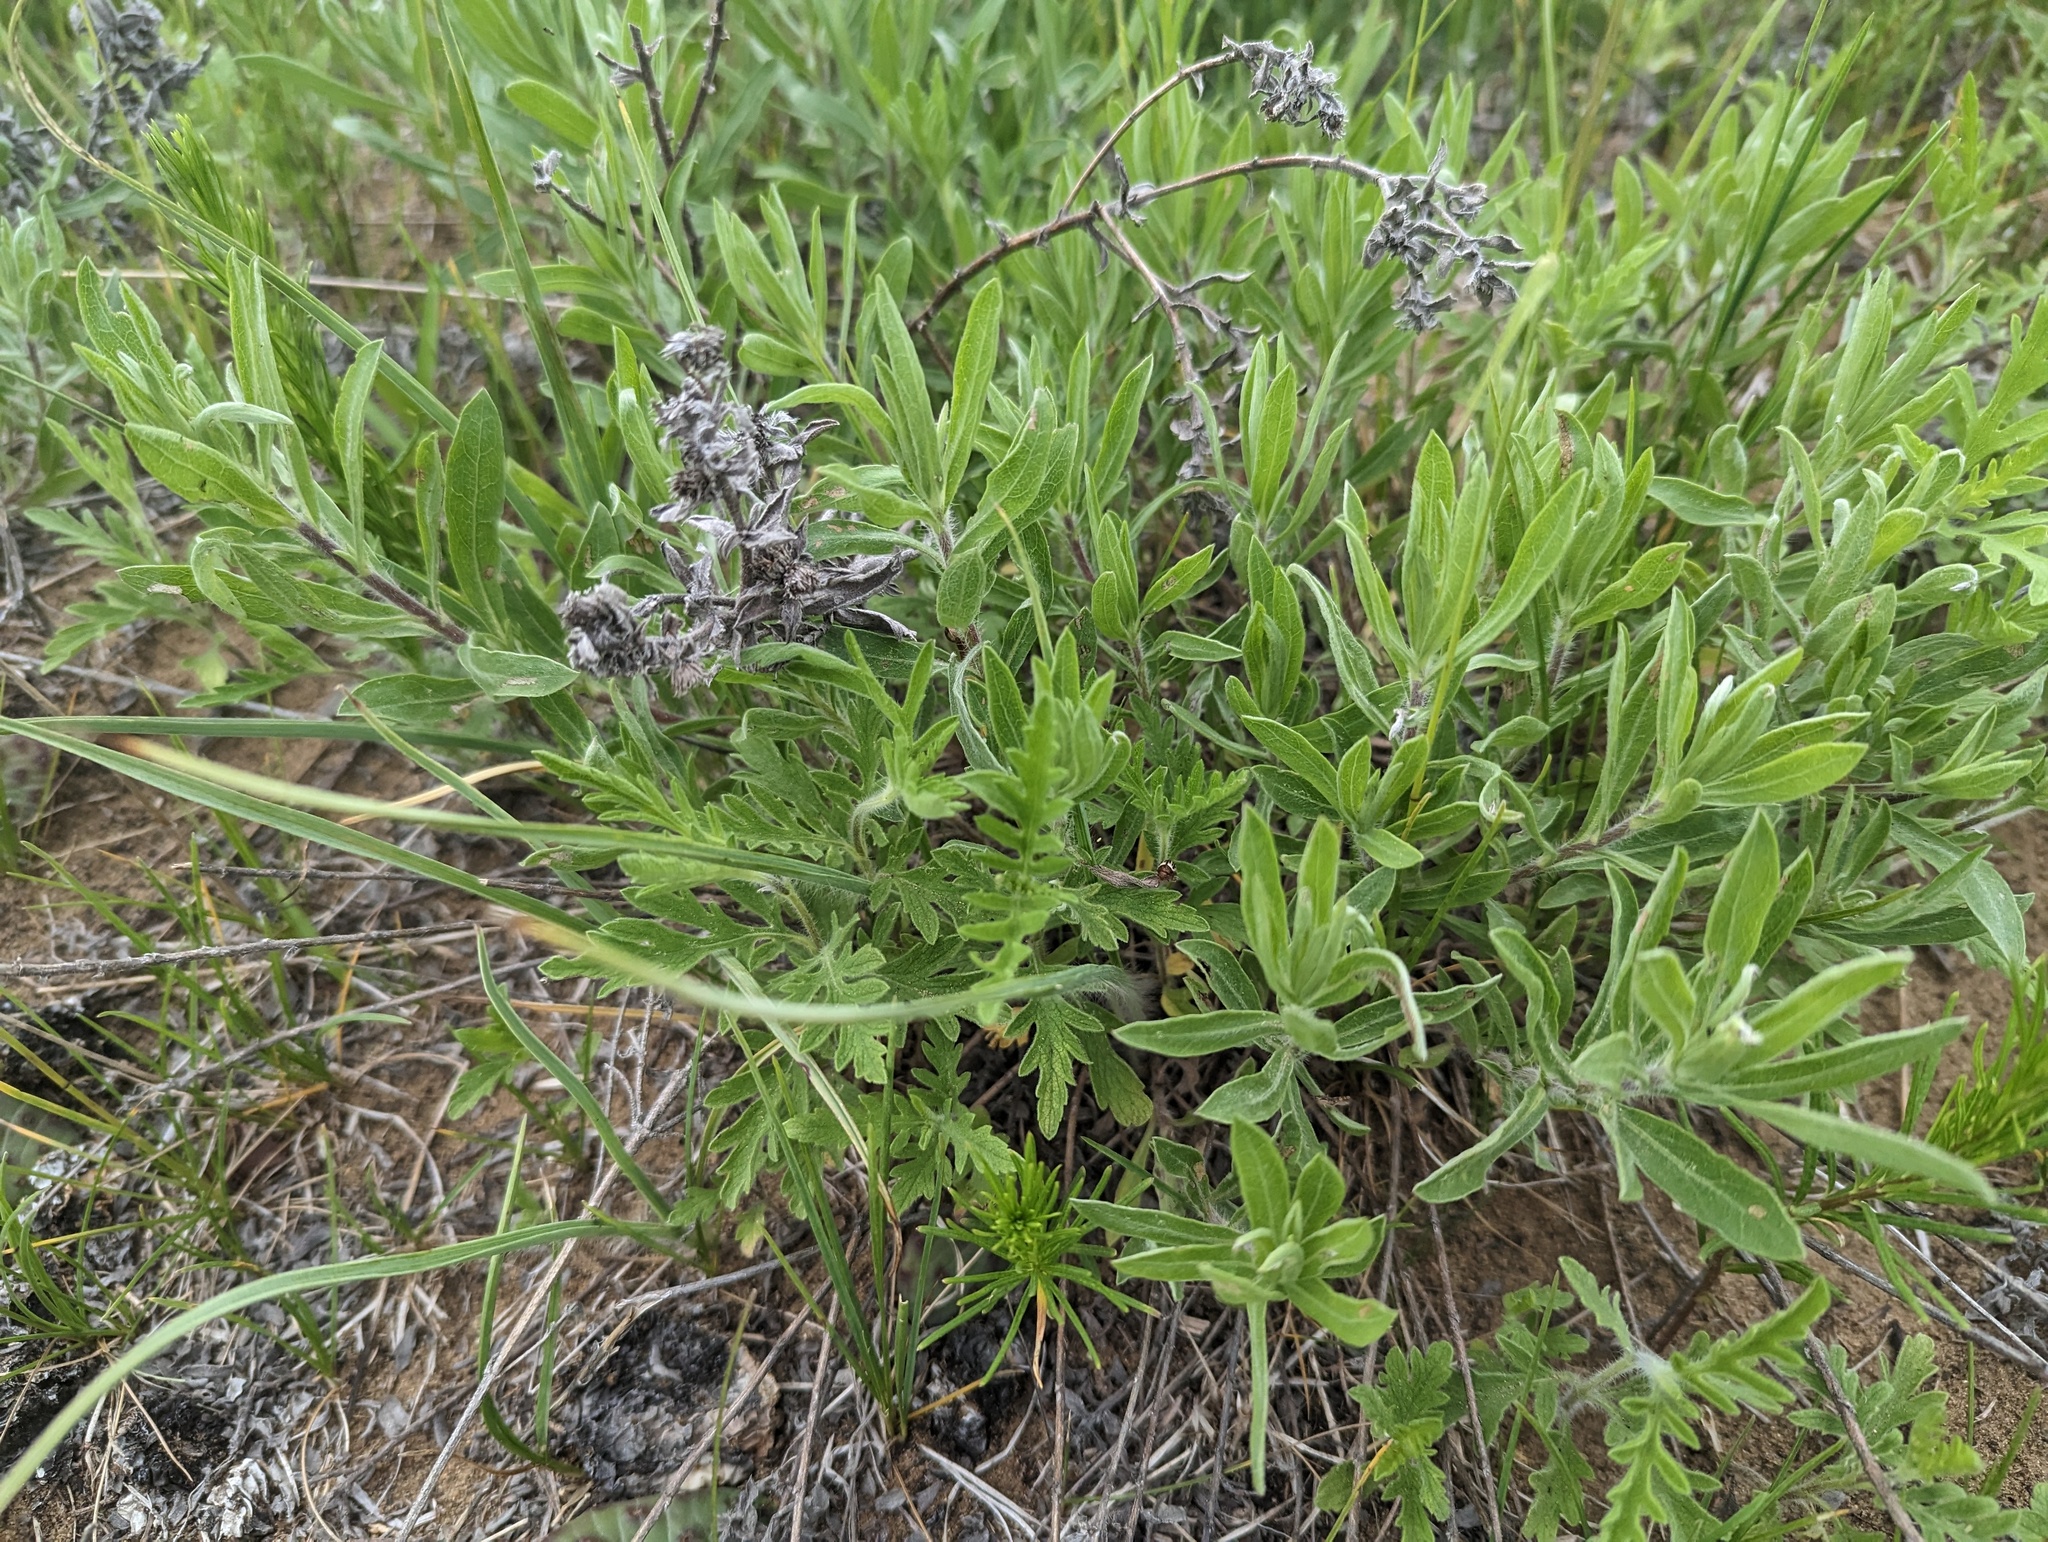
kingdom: Plantae
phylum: Tracheophyta
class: Magnoliopsida
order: Asterales
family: Asteraceae
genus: Heterotheca
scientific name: Heterotheca camporum
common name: Prairie golden-aster
